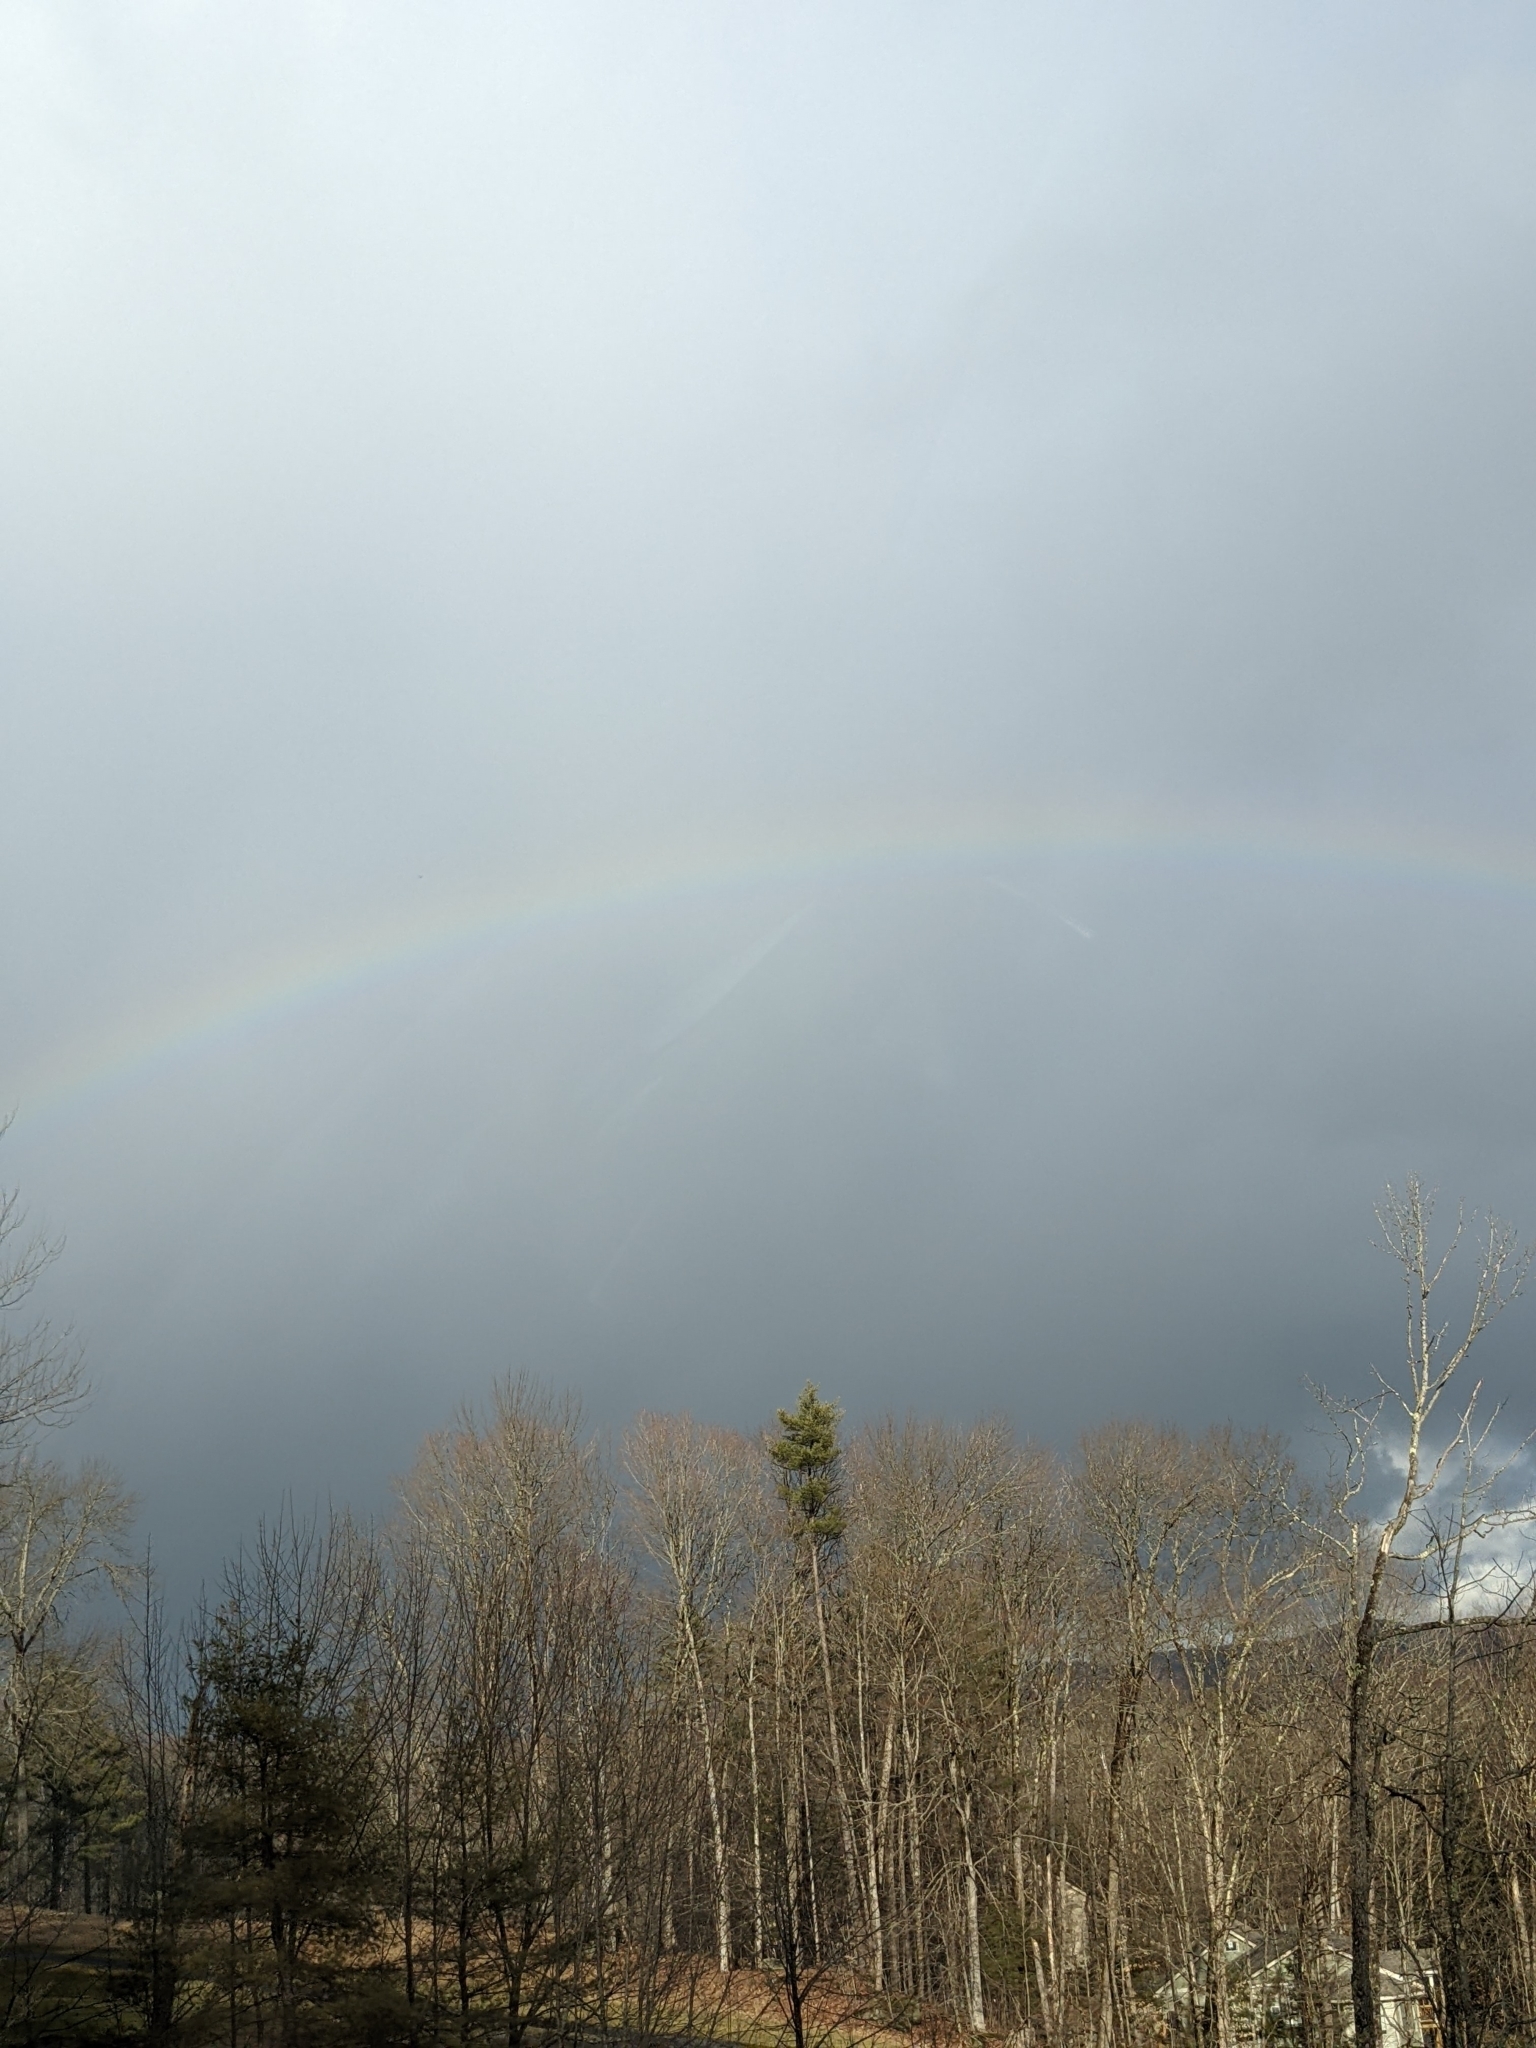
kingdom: Plantae
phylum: Tracheophyta
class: Pinopsida
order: Pinales
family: Pinaceae
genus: Pinus
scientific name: Pinus strobus
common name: Weymouth pine
